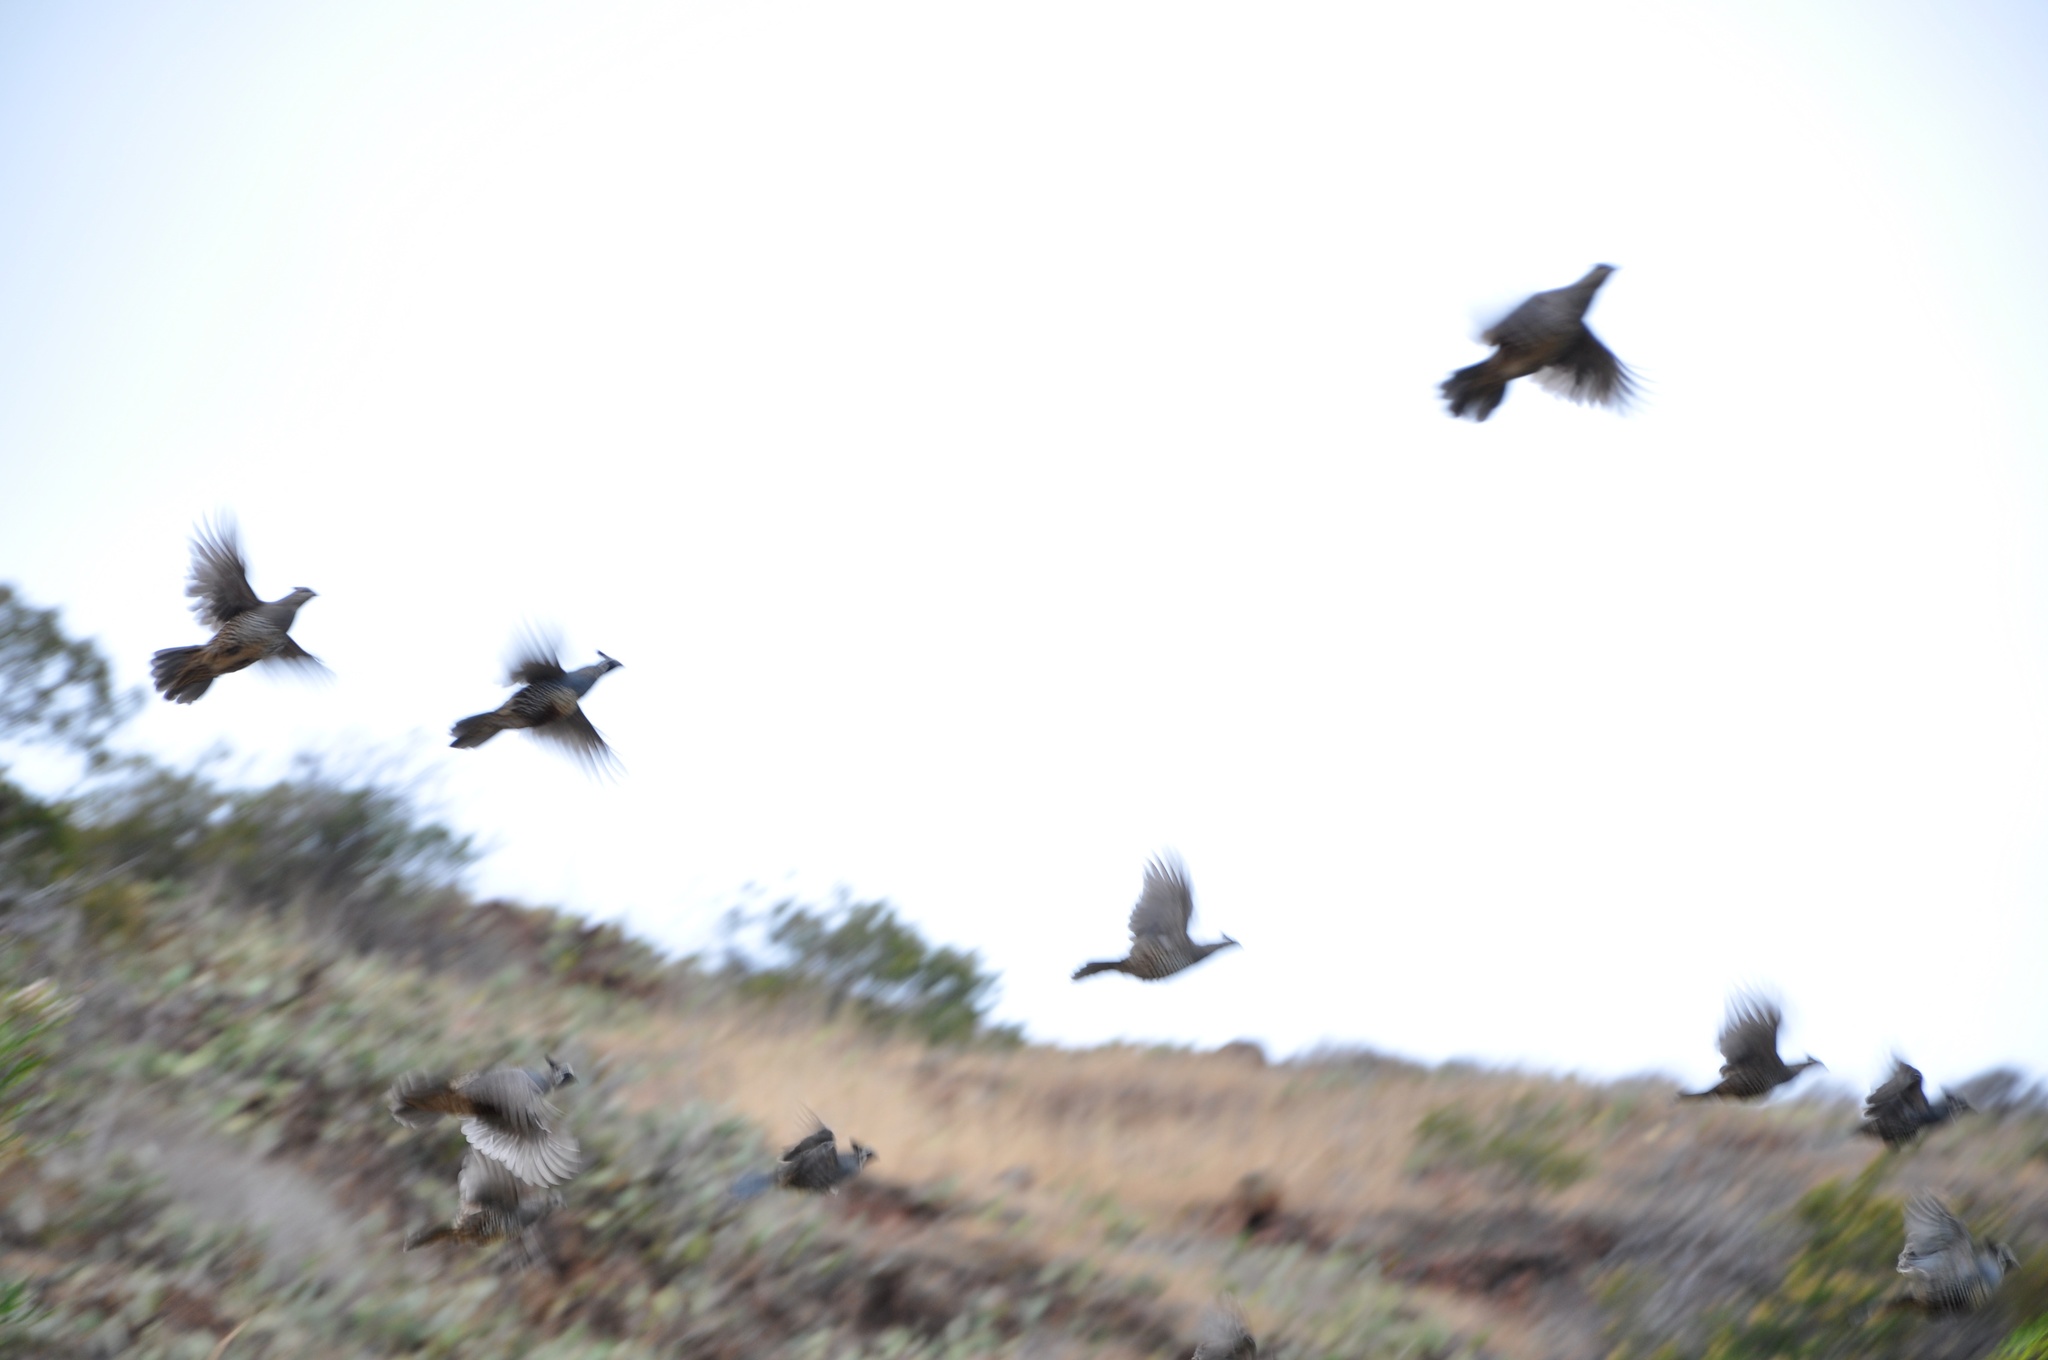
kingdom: Animalia
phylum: Chordata
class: Aves
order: Galliformes
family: Odontophoridae
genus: Callipepla
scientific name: Callipepla californica
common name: California quail
